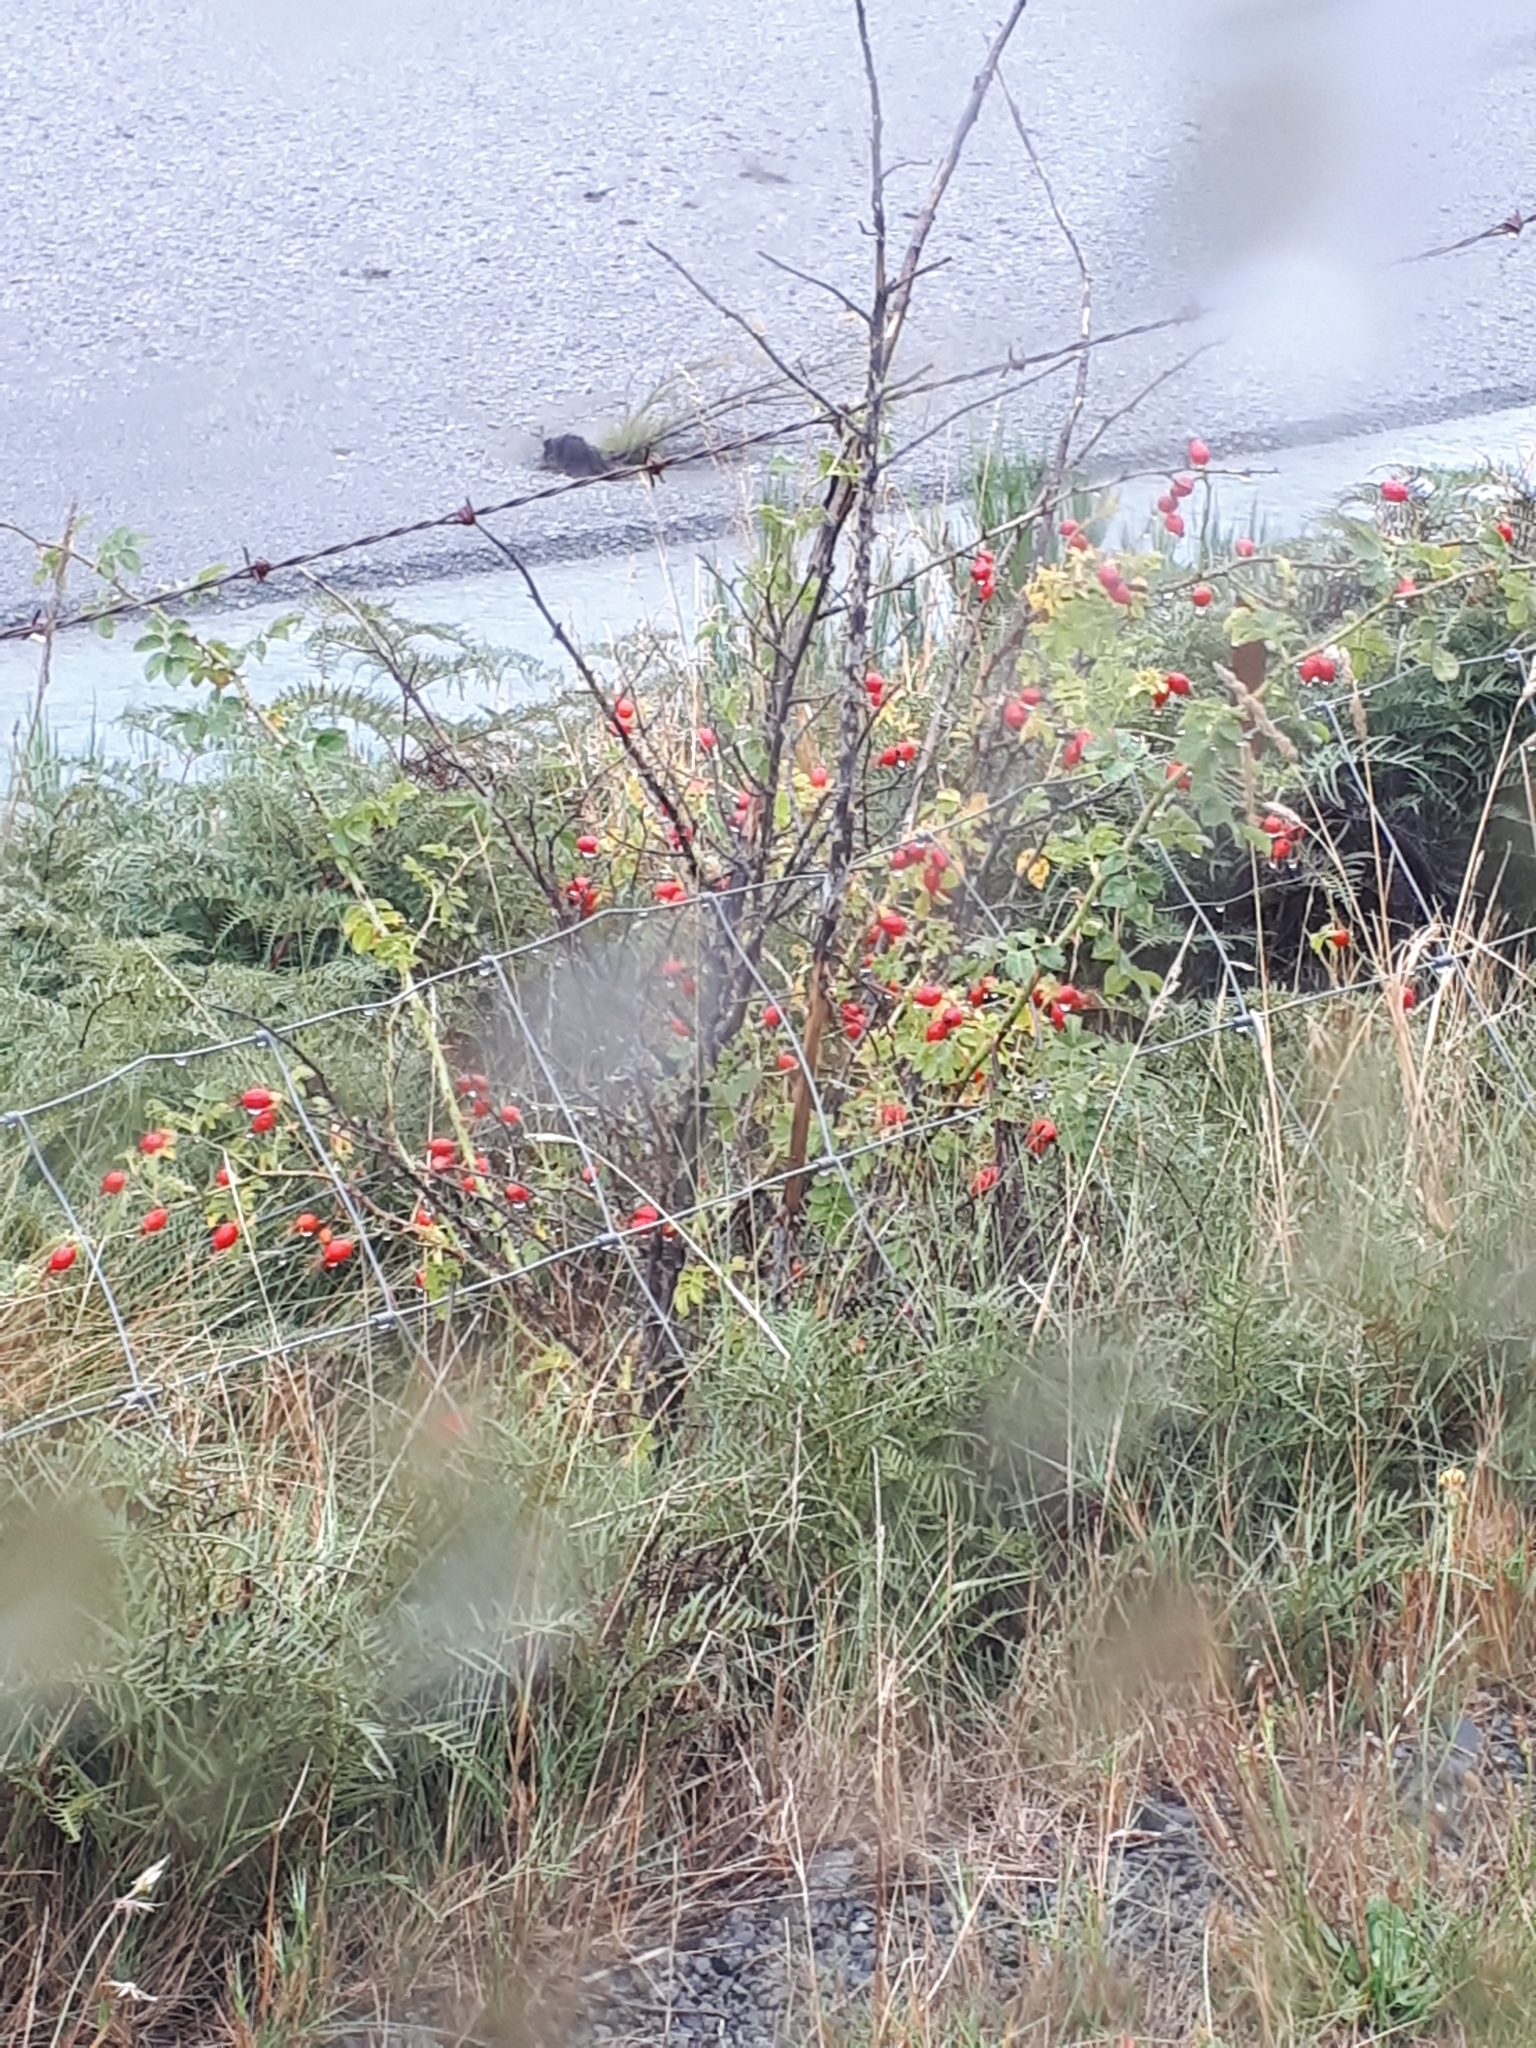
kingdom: Plantae
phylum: Tracheophyta
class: Magnoliopsida
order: Rosales
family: Rosaceae
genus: Rosa
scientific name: Rosa rubiginosa
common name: Sweet-briar
